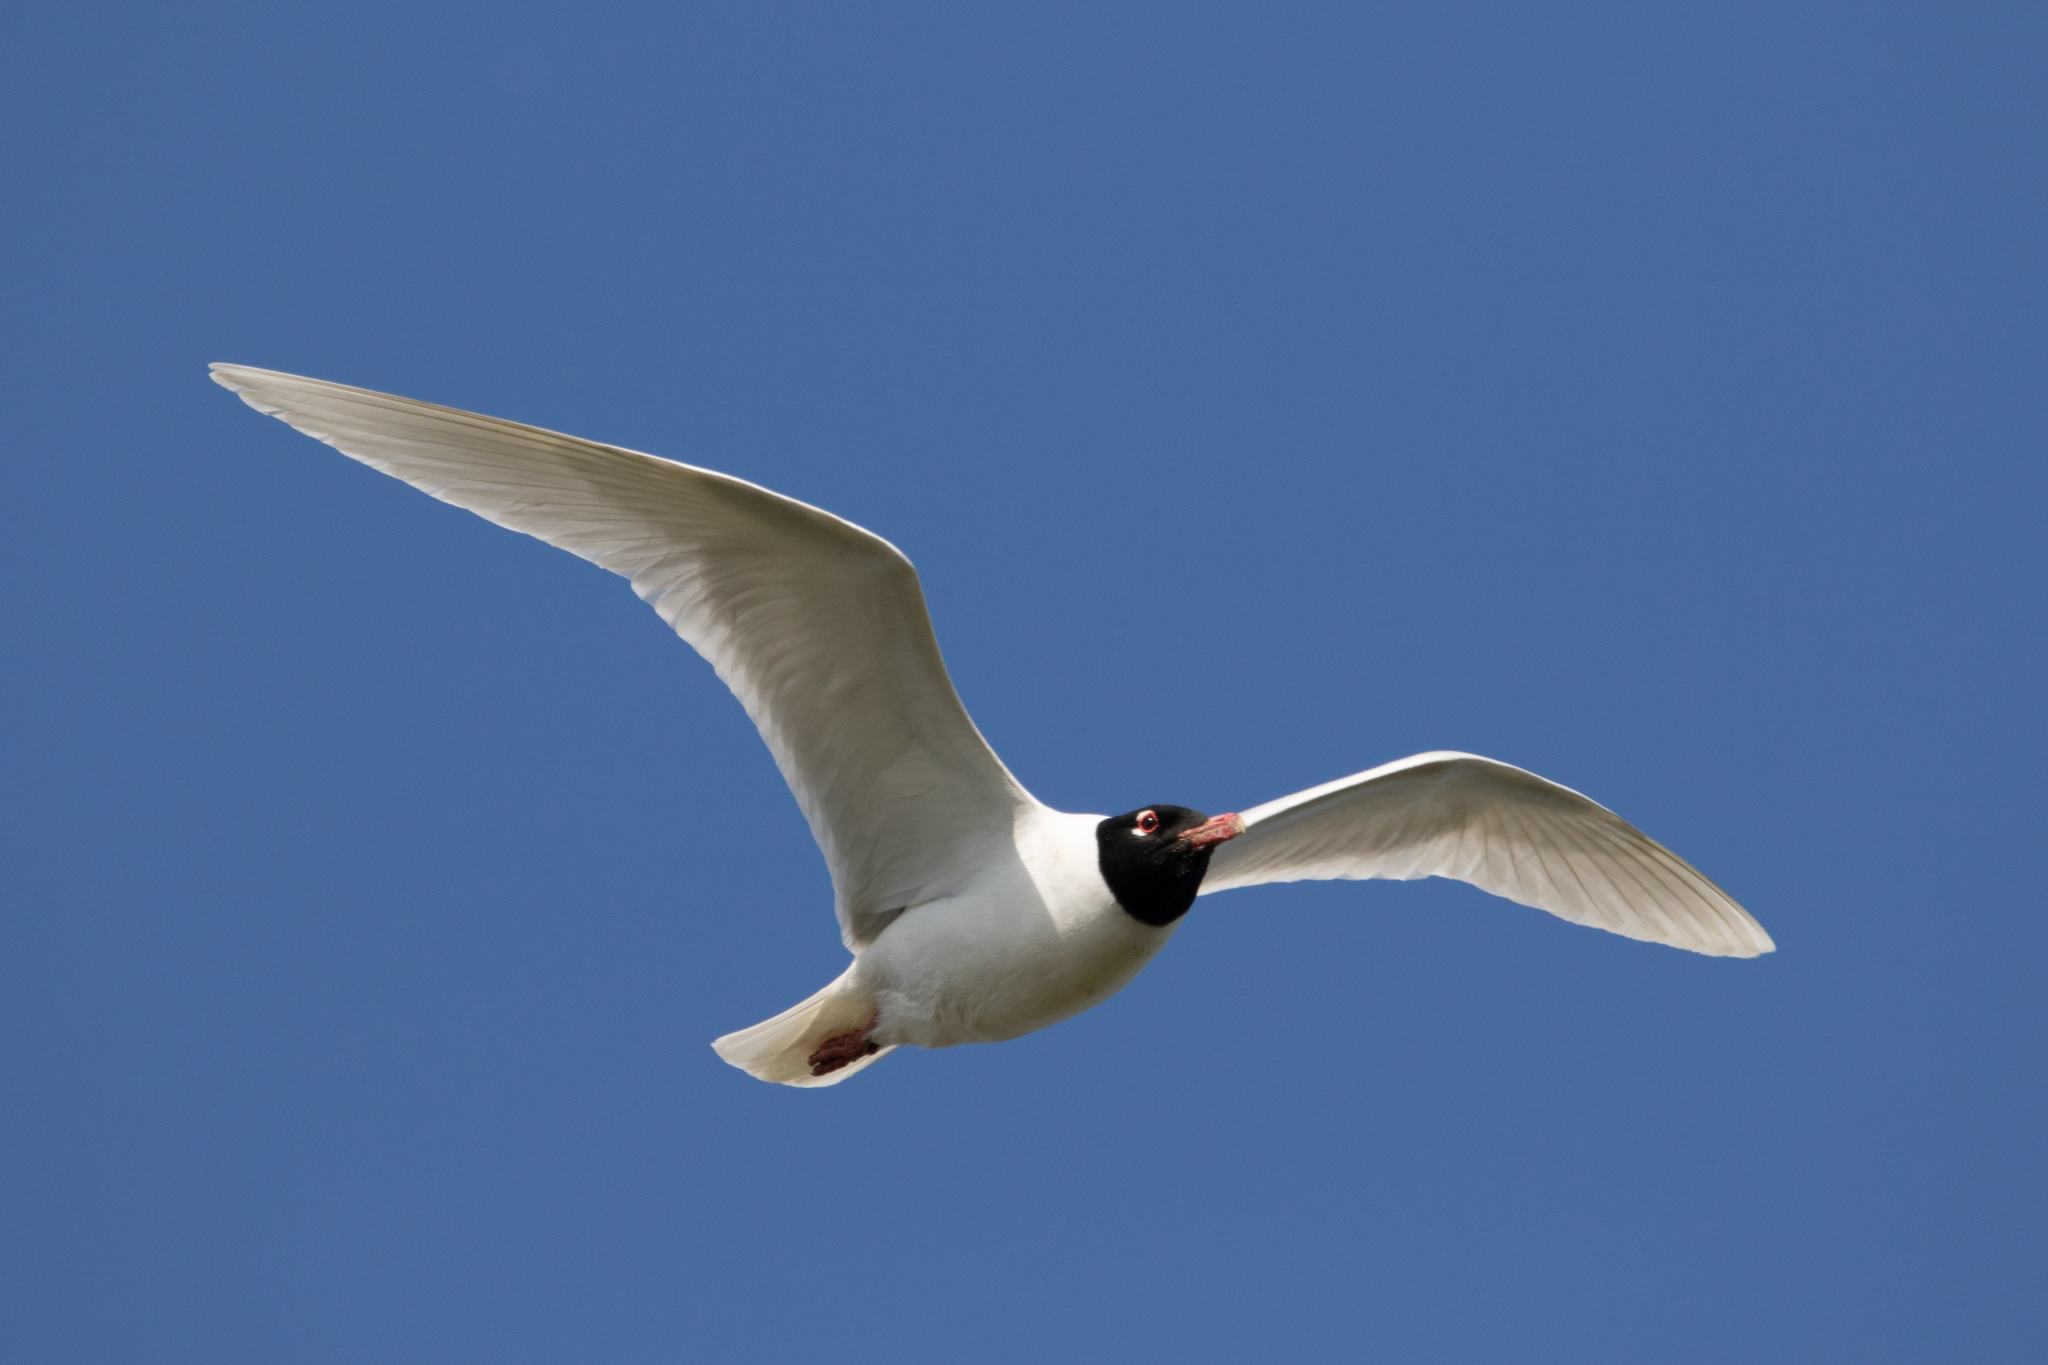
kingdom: Animalia
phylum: Chordata
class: Aves
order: Charadriiformes
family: Laridae
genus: Ichthyaetus
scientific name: Ichthyaetus melanocephalus
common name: Mediterranean gull
